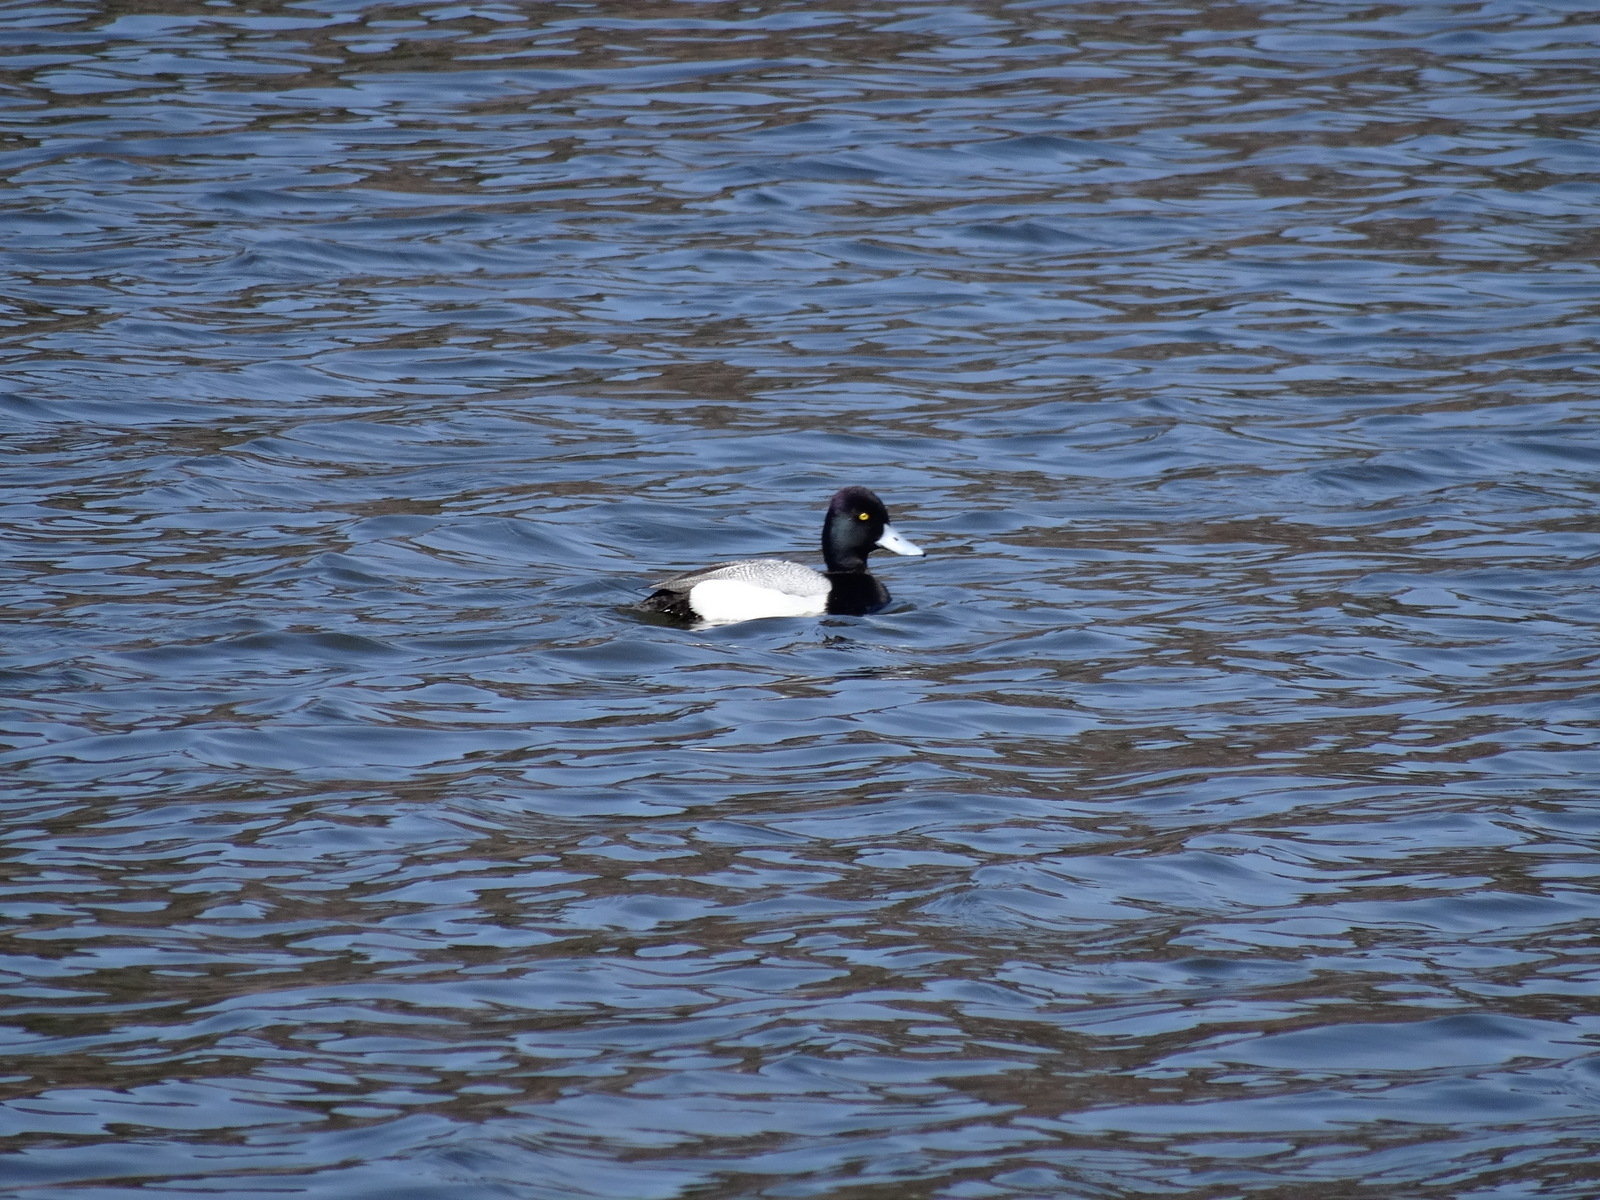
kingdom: Animalia
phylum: Chordata
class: Aves
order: Anseriformes
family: Anatidae
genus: Aythya
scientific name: Aythya affinis
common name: Lesser scaup
